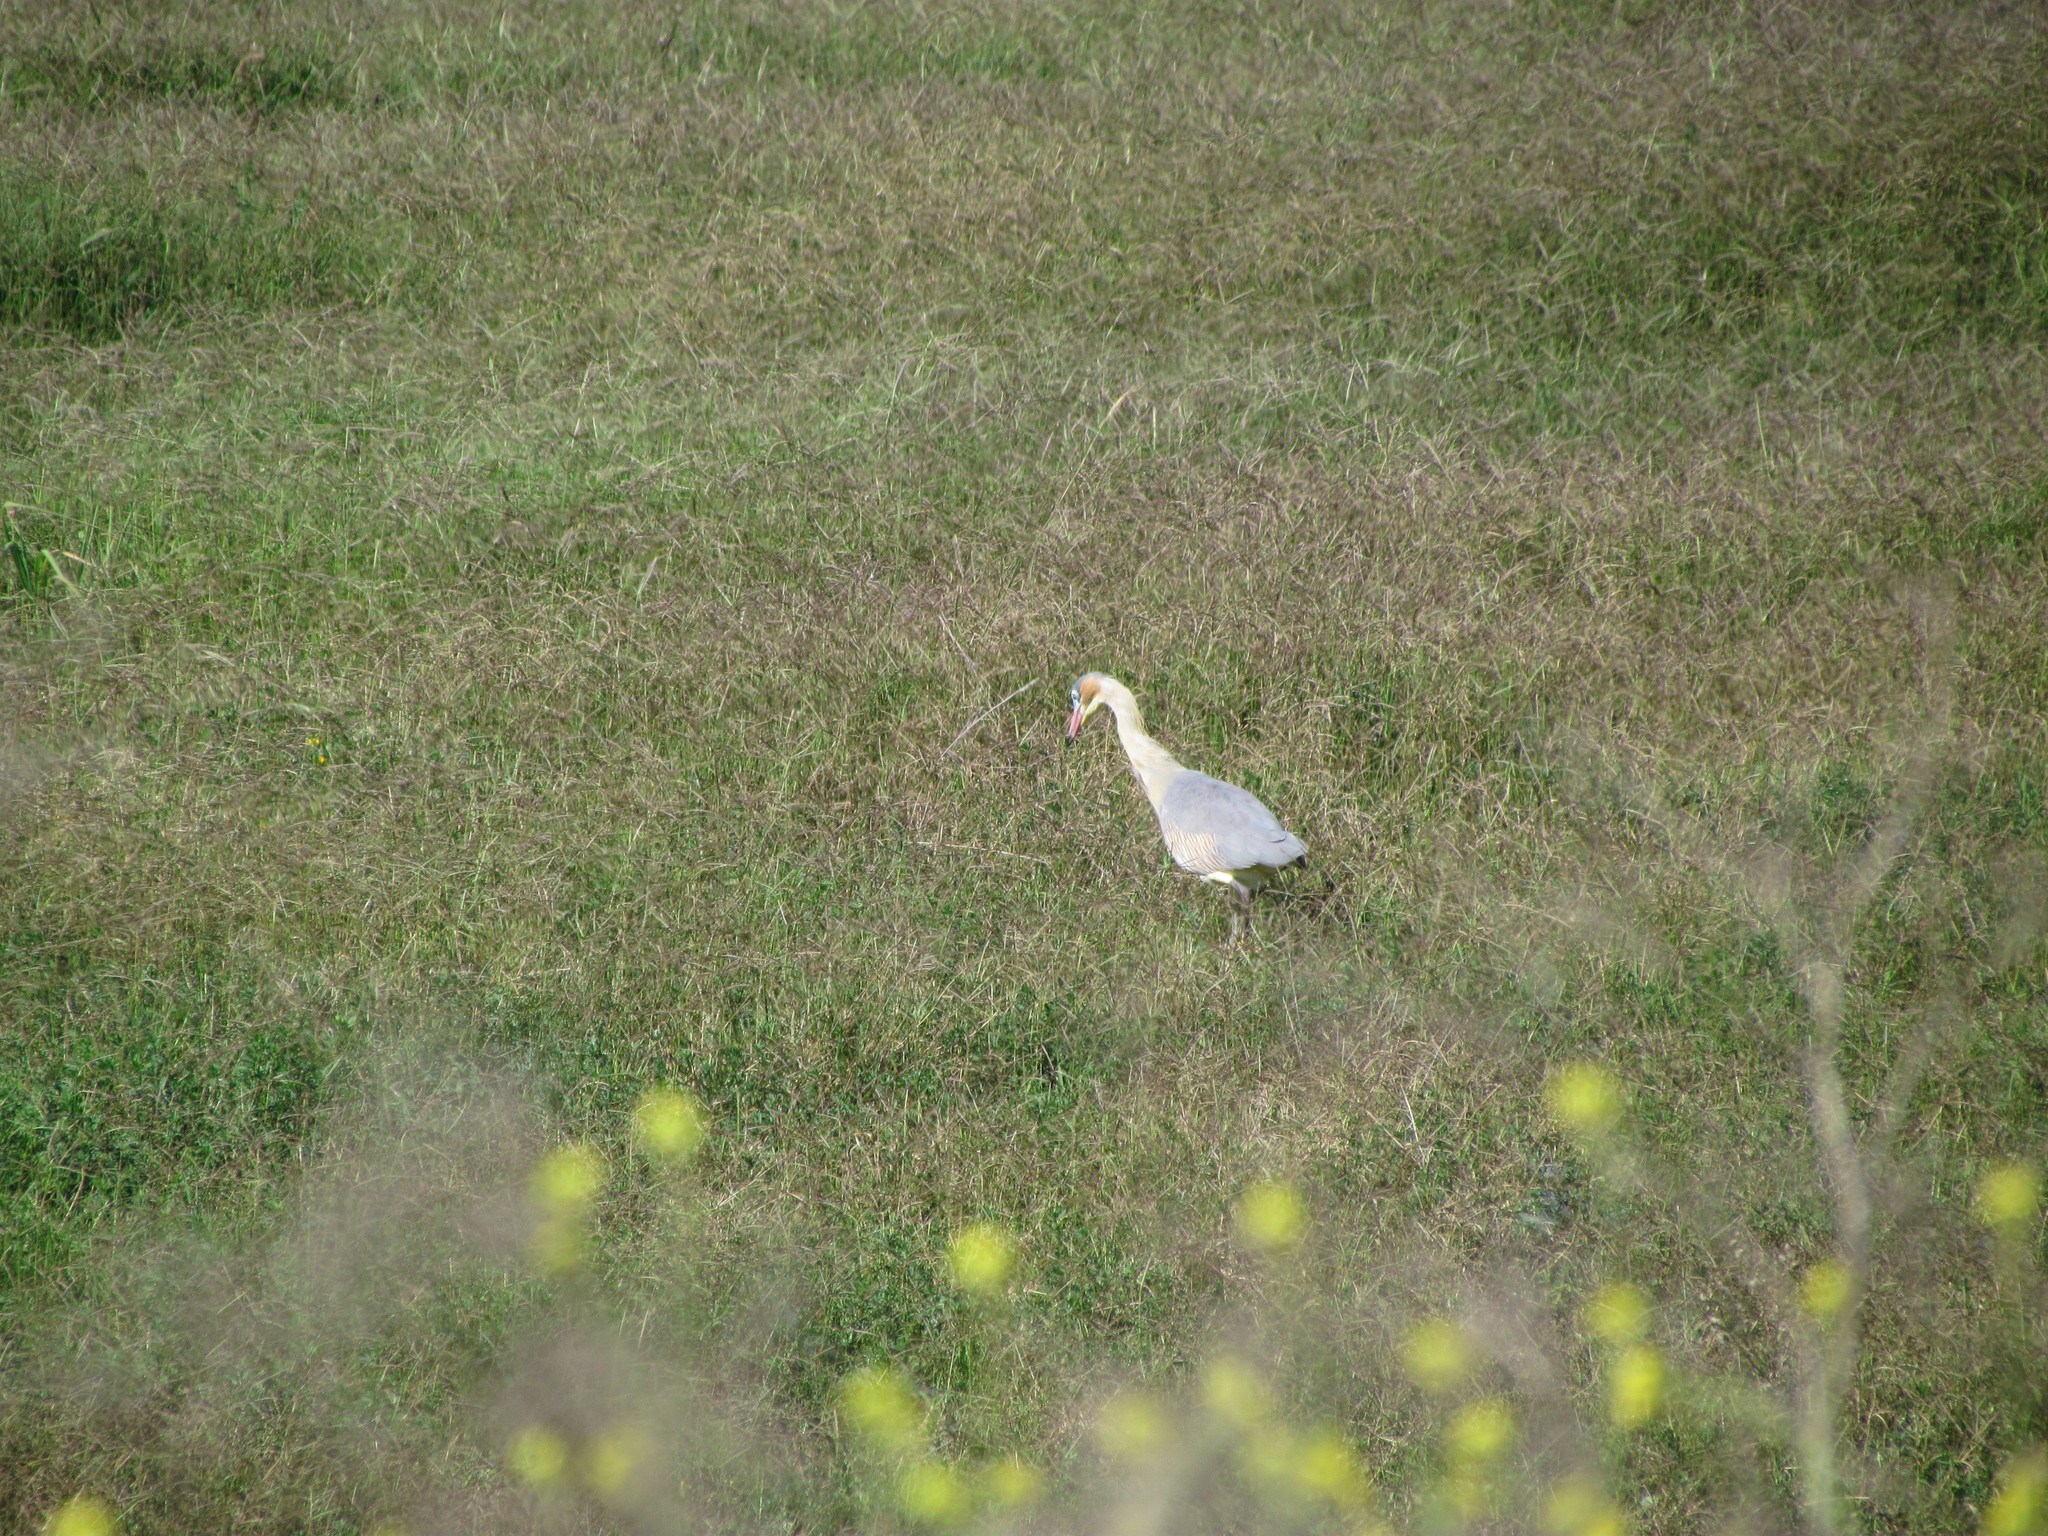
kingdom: Animalia
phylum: Chordata
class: Aves
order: Pelecaniformes
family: Ardeidae
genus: Syrigma
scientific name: Syrigma sibilatrix
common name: Whistling heron
